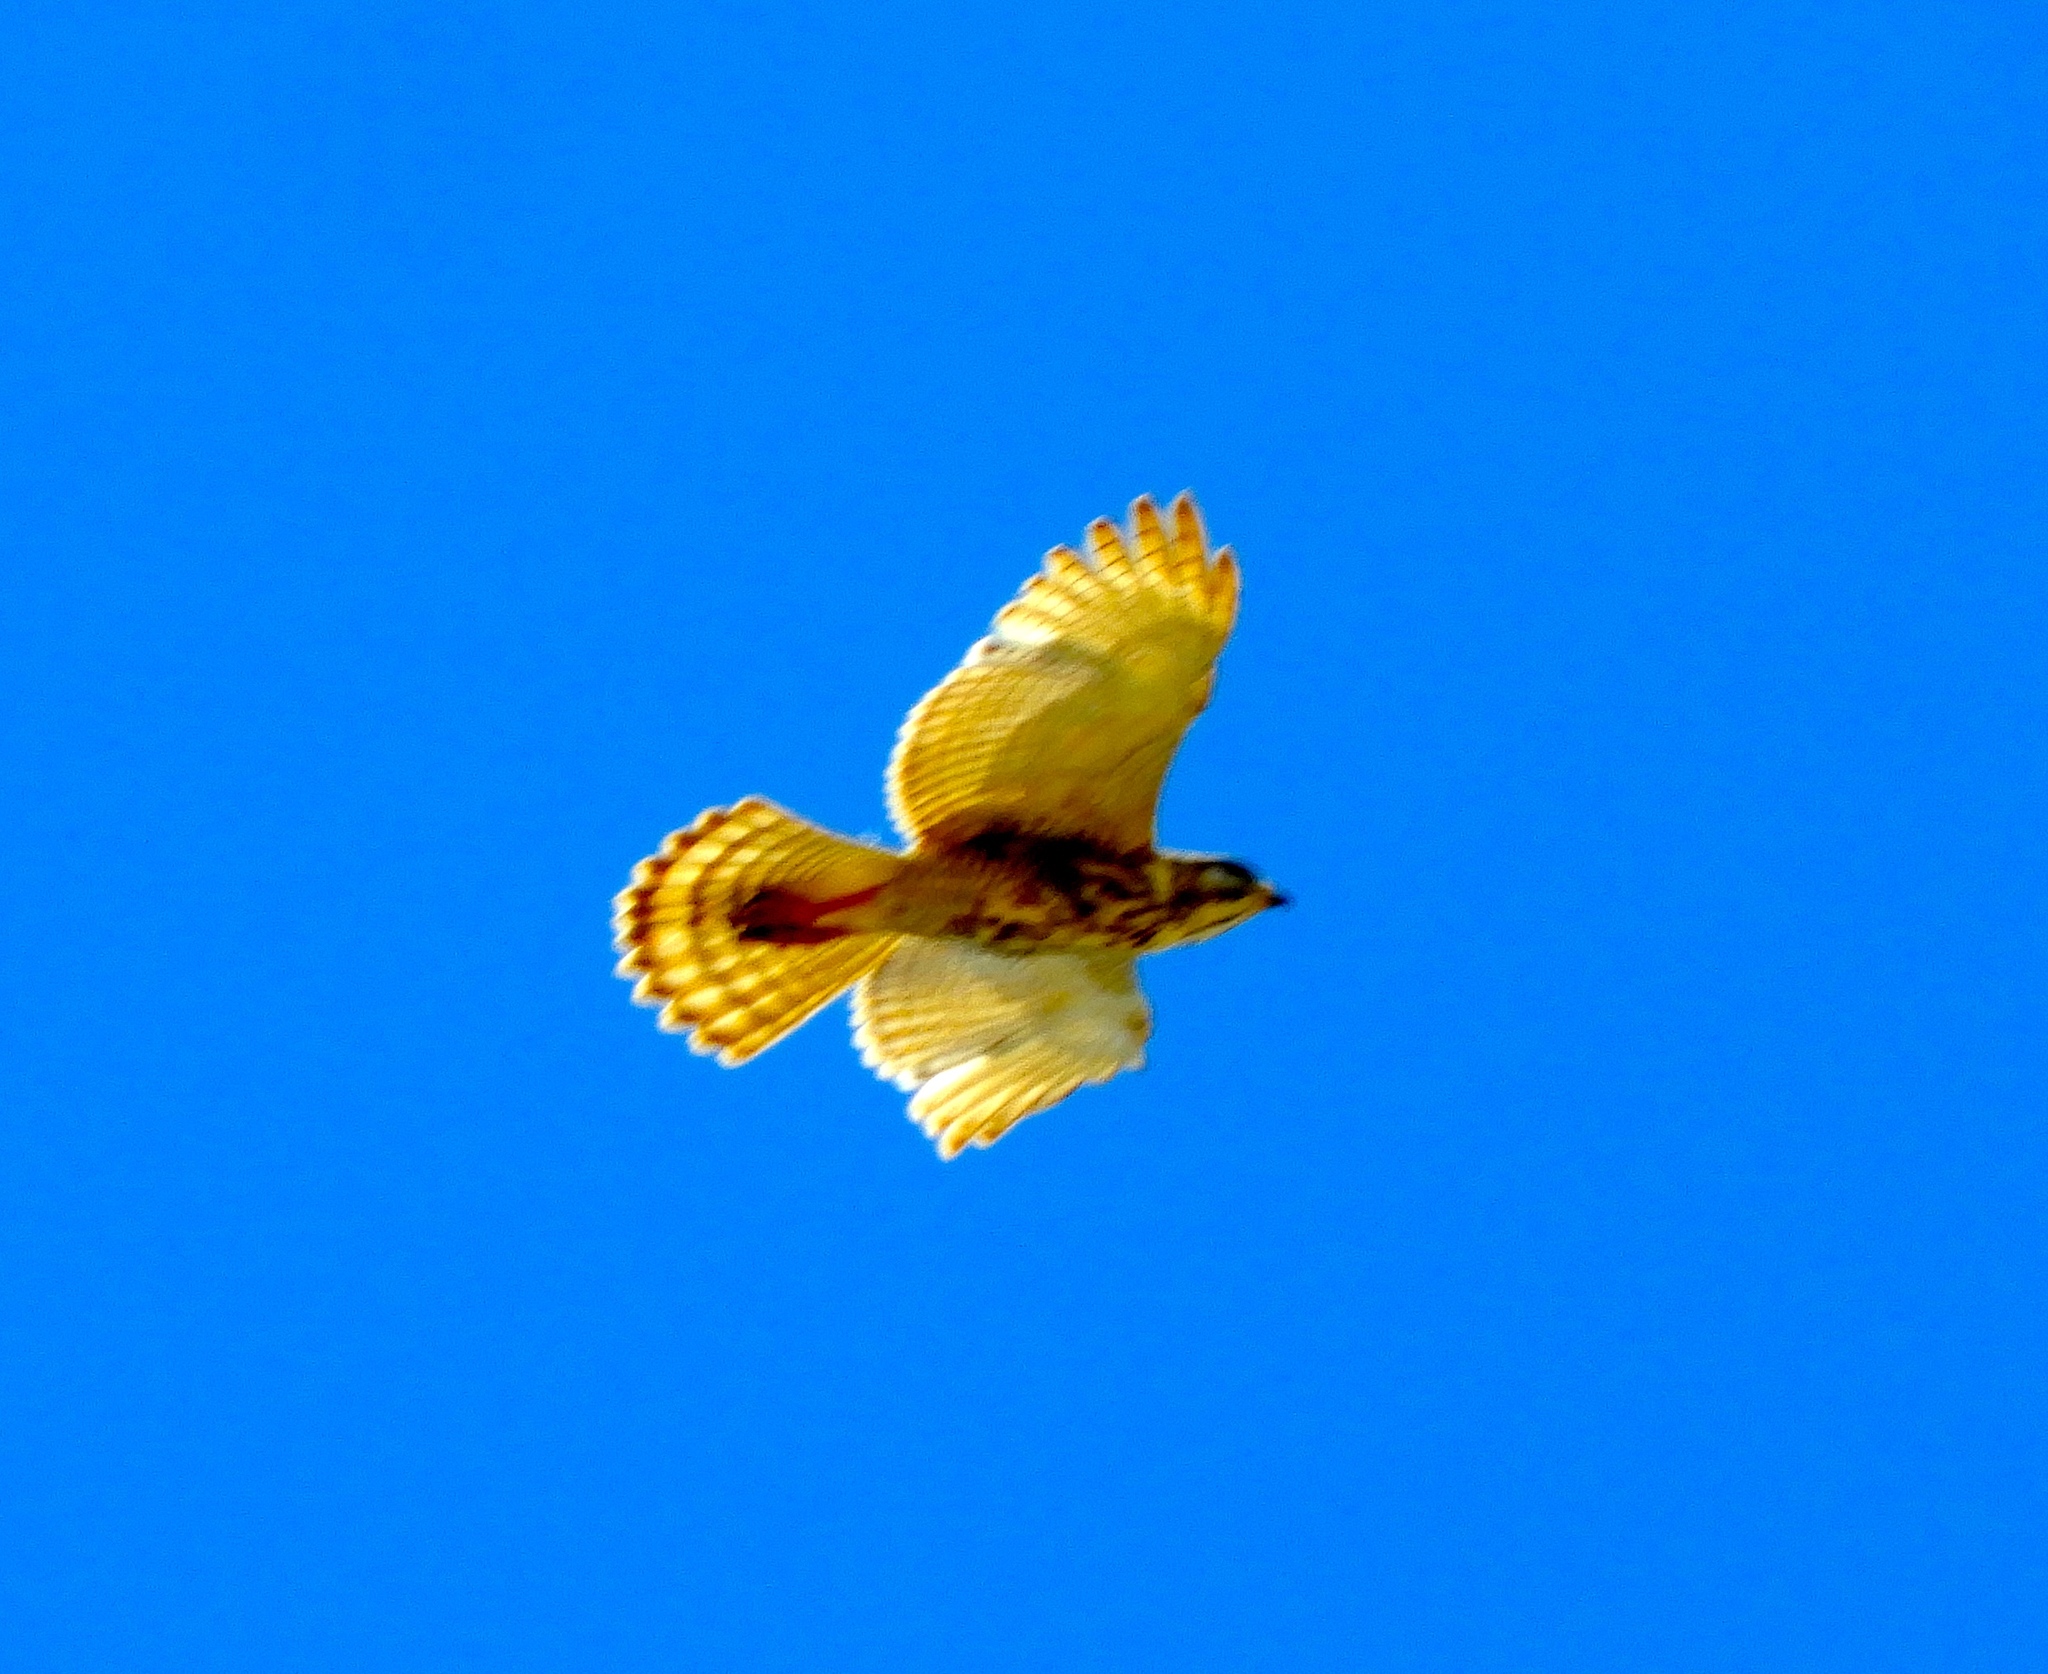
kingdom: Animalia
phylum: Chordata
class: Aves
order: Accipitriformes
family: Accipitridae
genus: Buteo
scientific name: Buteo nitidus
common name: Grey-lined hawk
